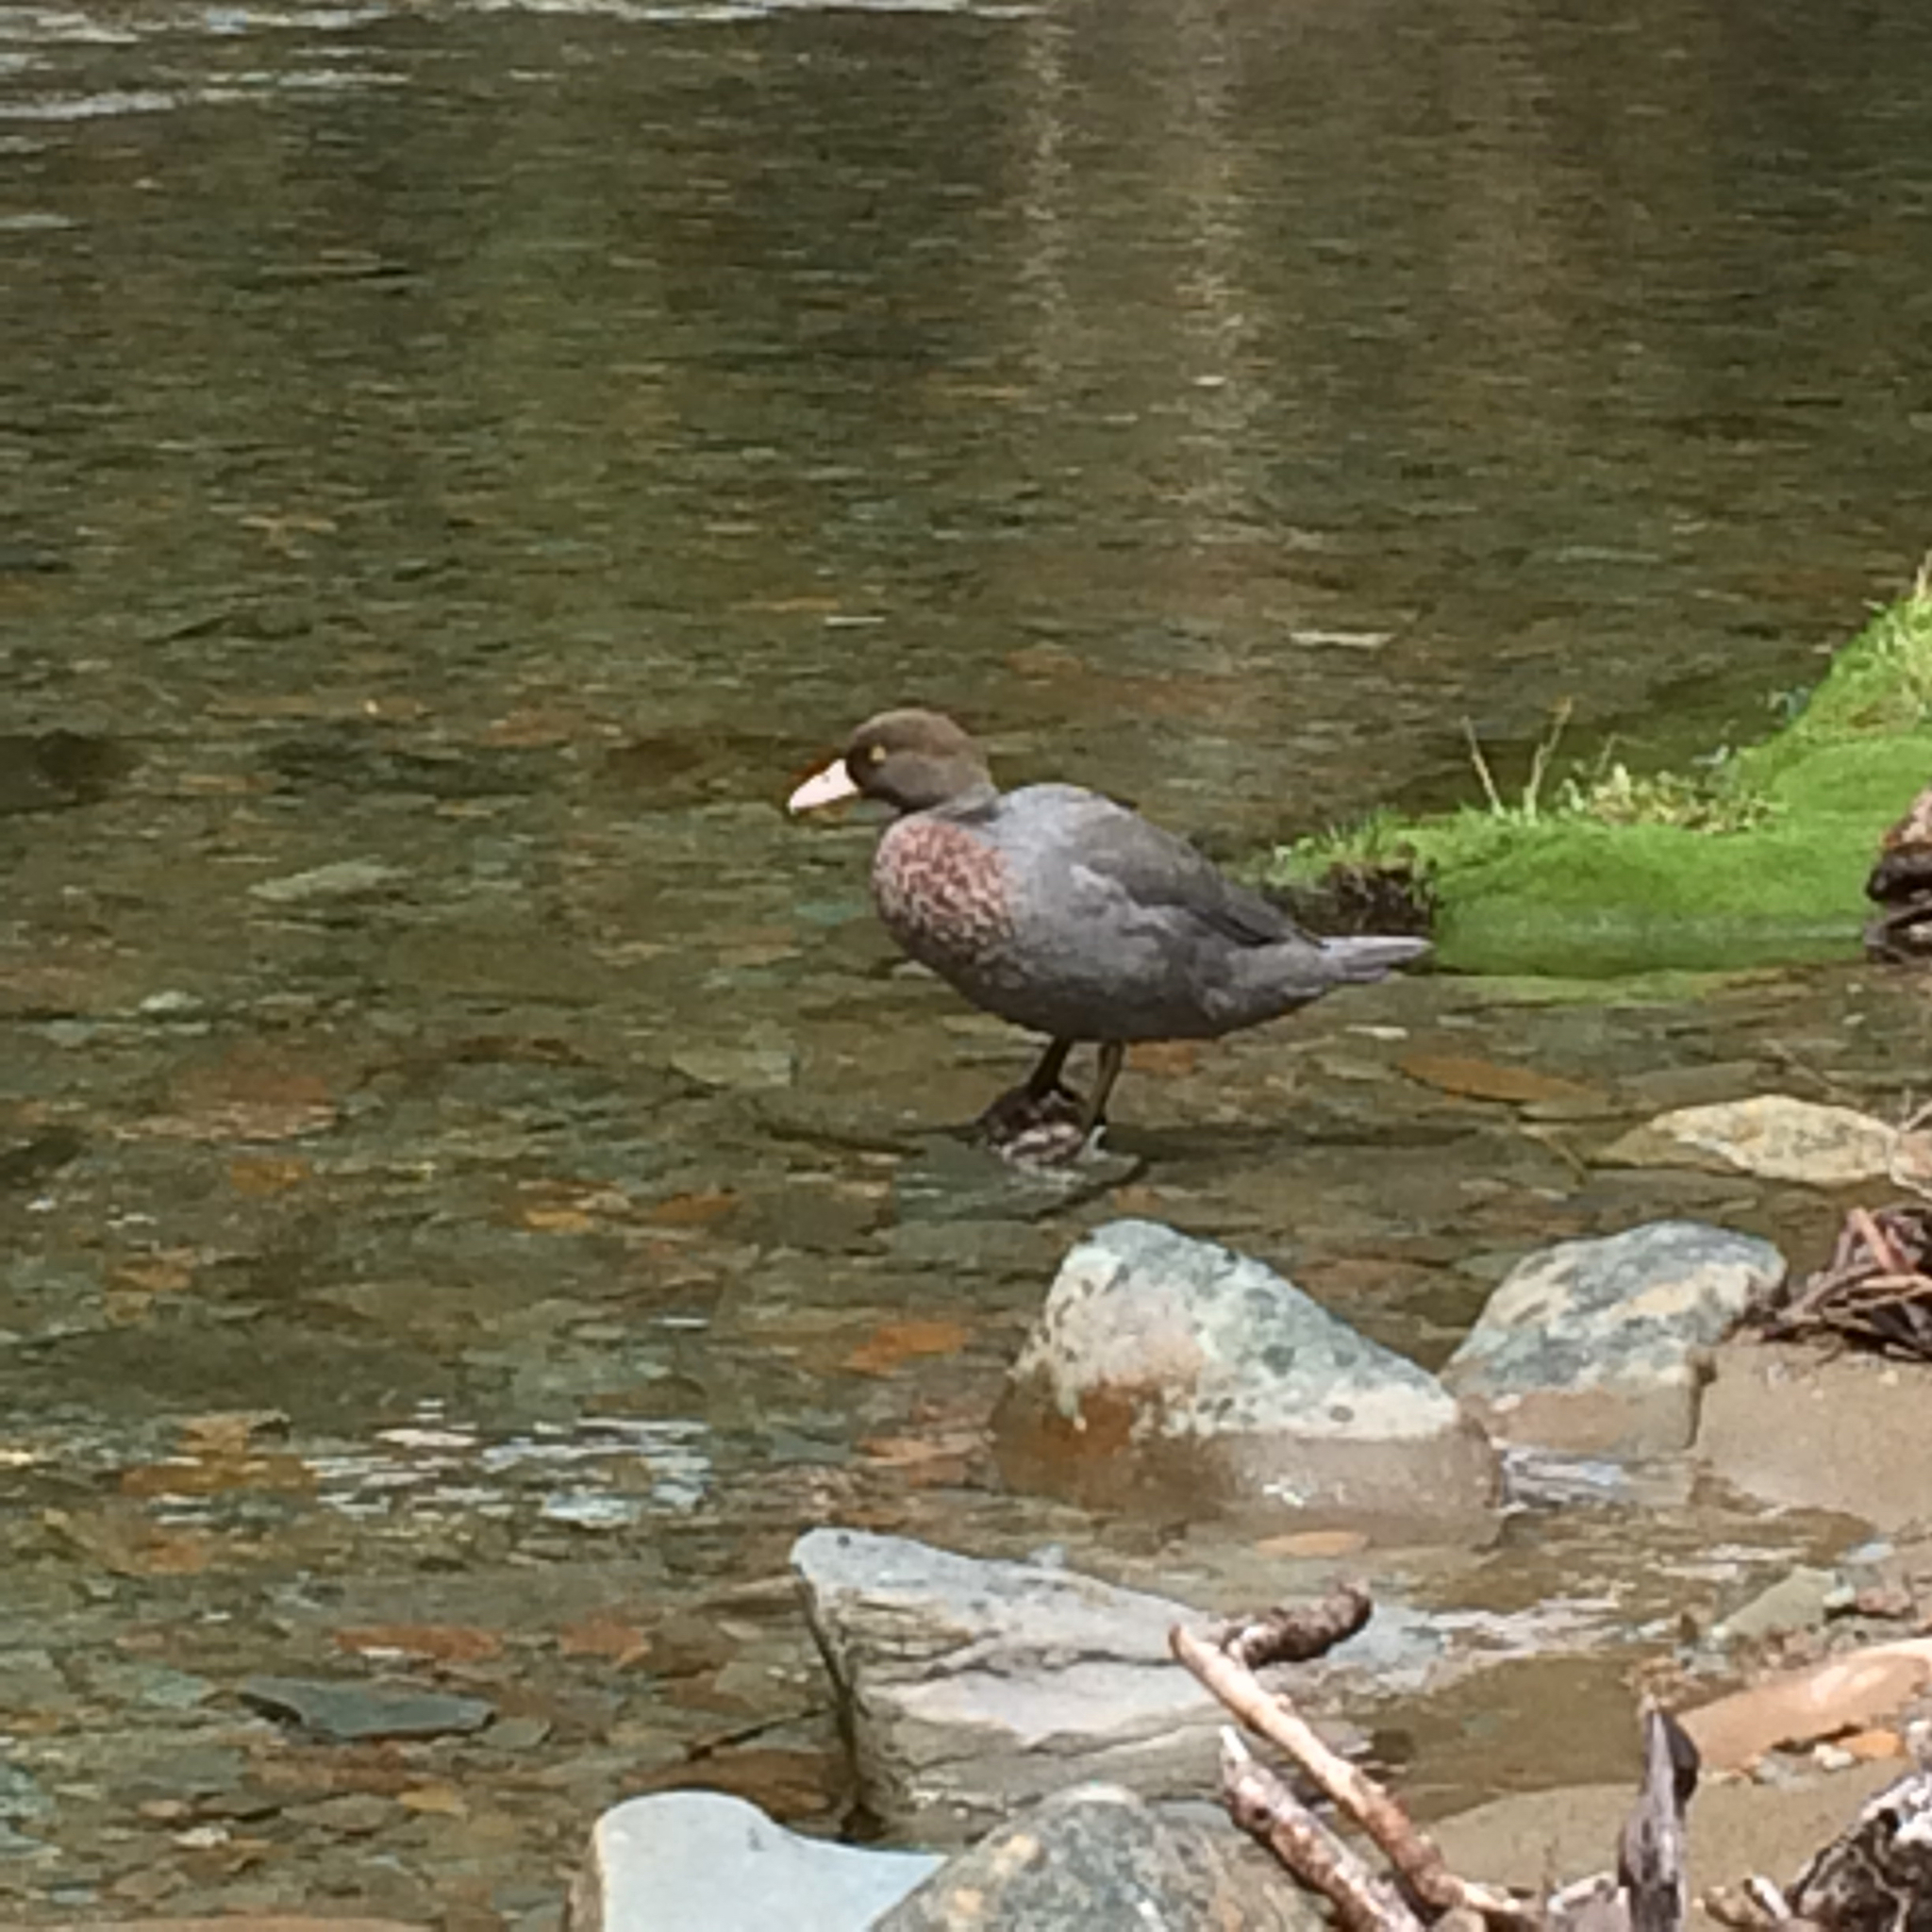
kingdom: Animalia
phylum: Chordata
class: Aves
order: Anseriformes
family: Anatidae
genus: Hymenolaimus
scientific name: Hymenolaimus malacorhynchos
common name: Blue duck
